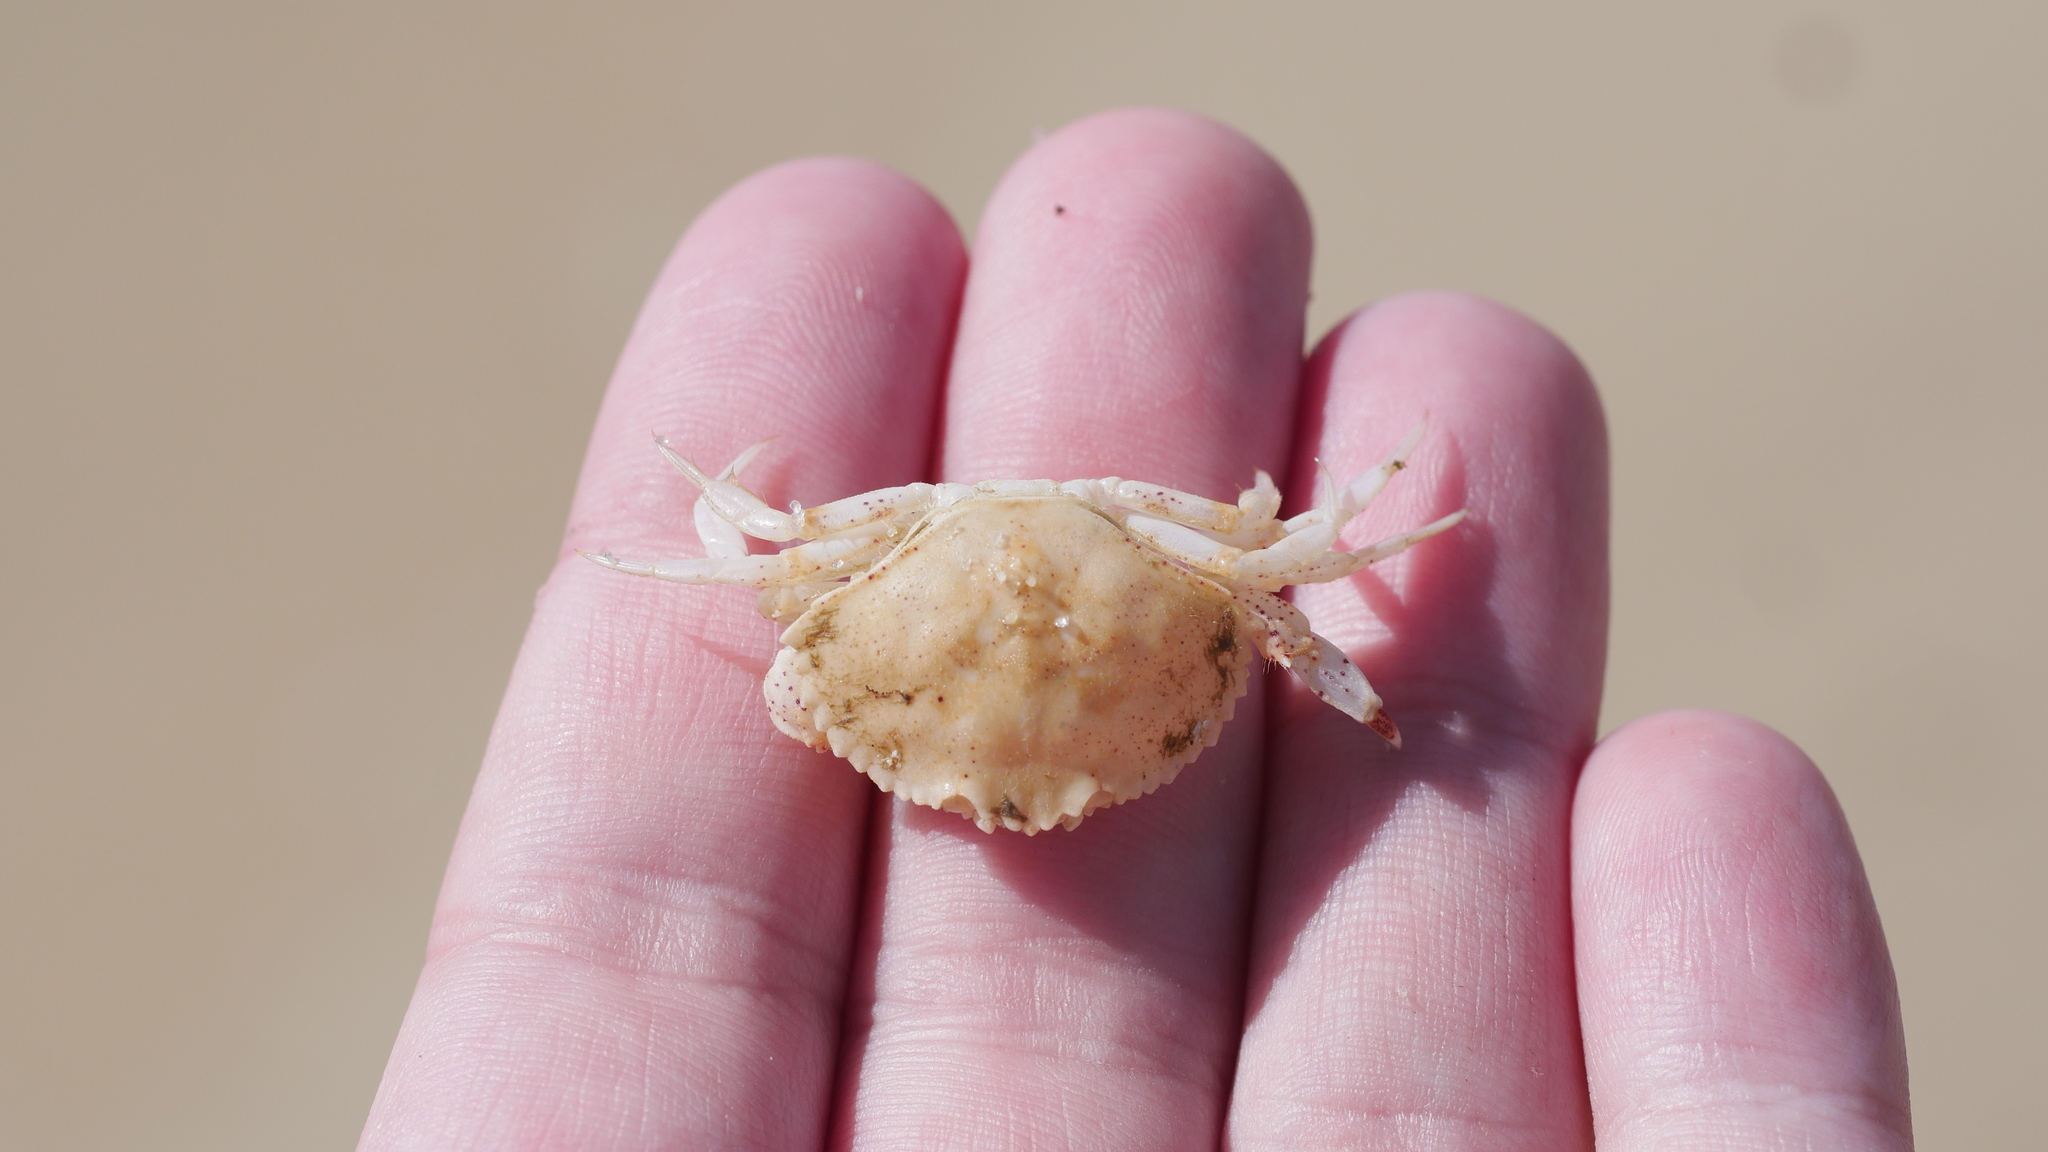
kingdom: Animalia
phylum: Arthropoda
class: Malacostraca
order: Decapoda
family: Cancridae
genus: Cancer
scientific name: Cancer irroratus
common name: Atlantic rock crab
